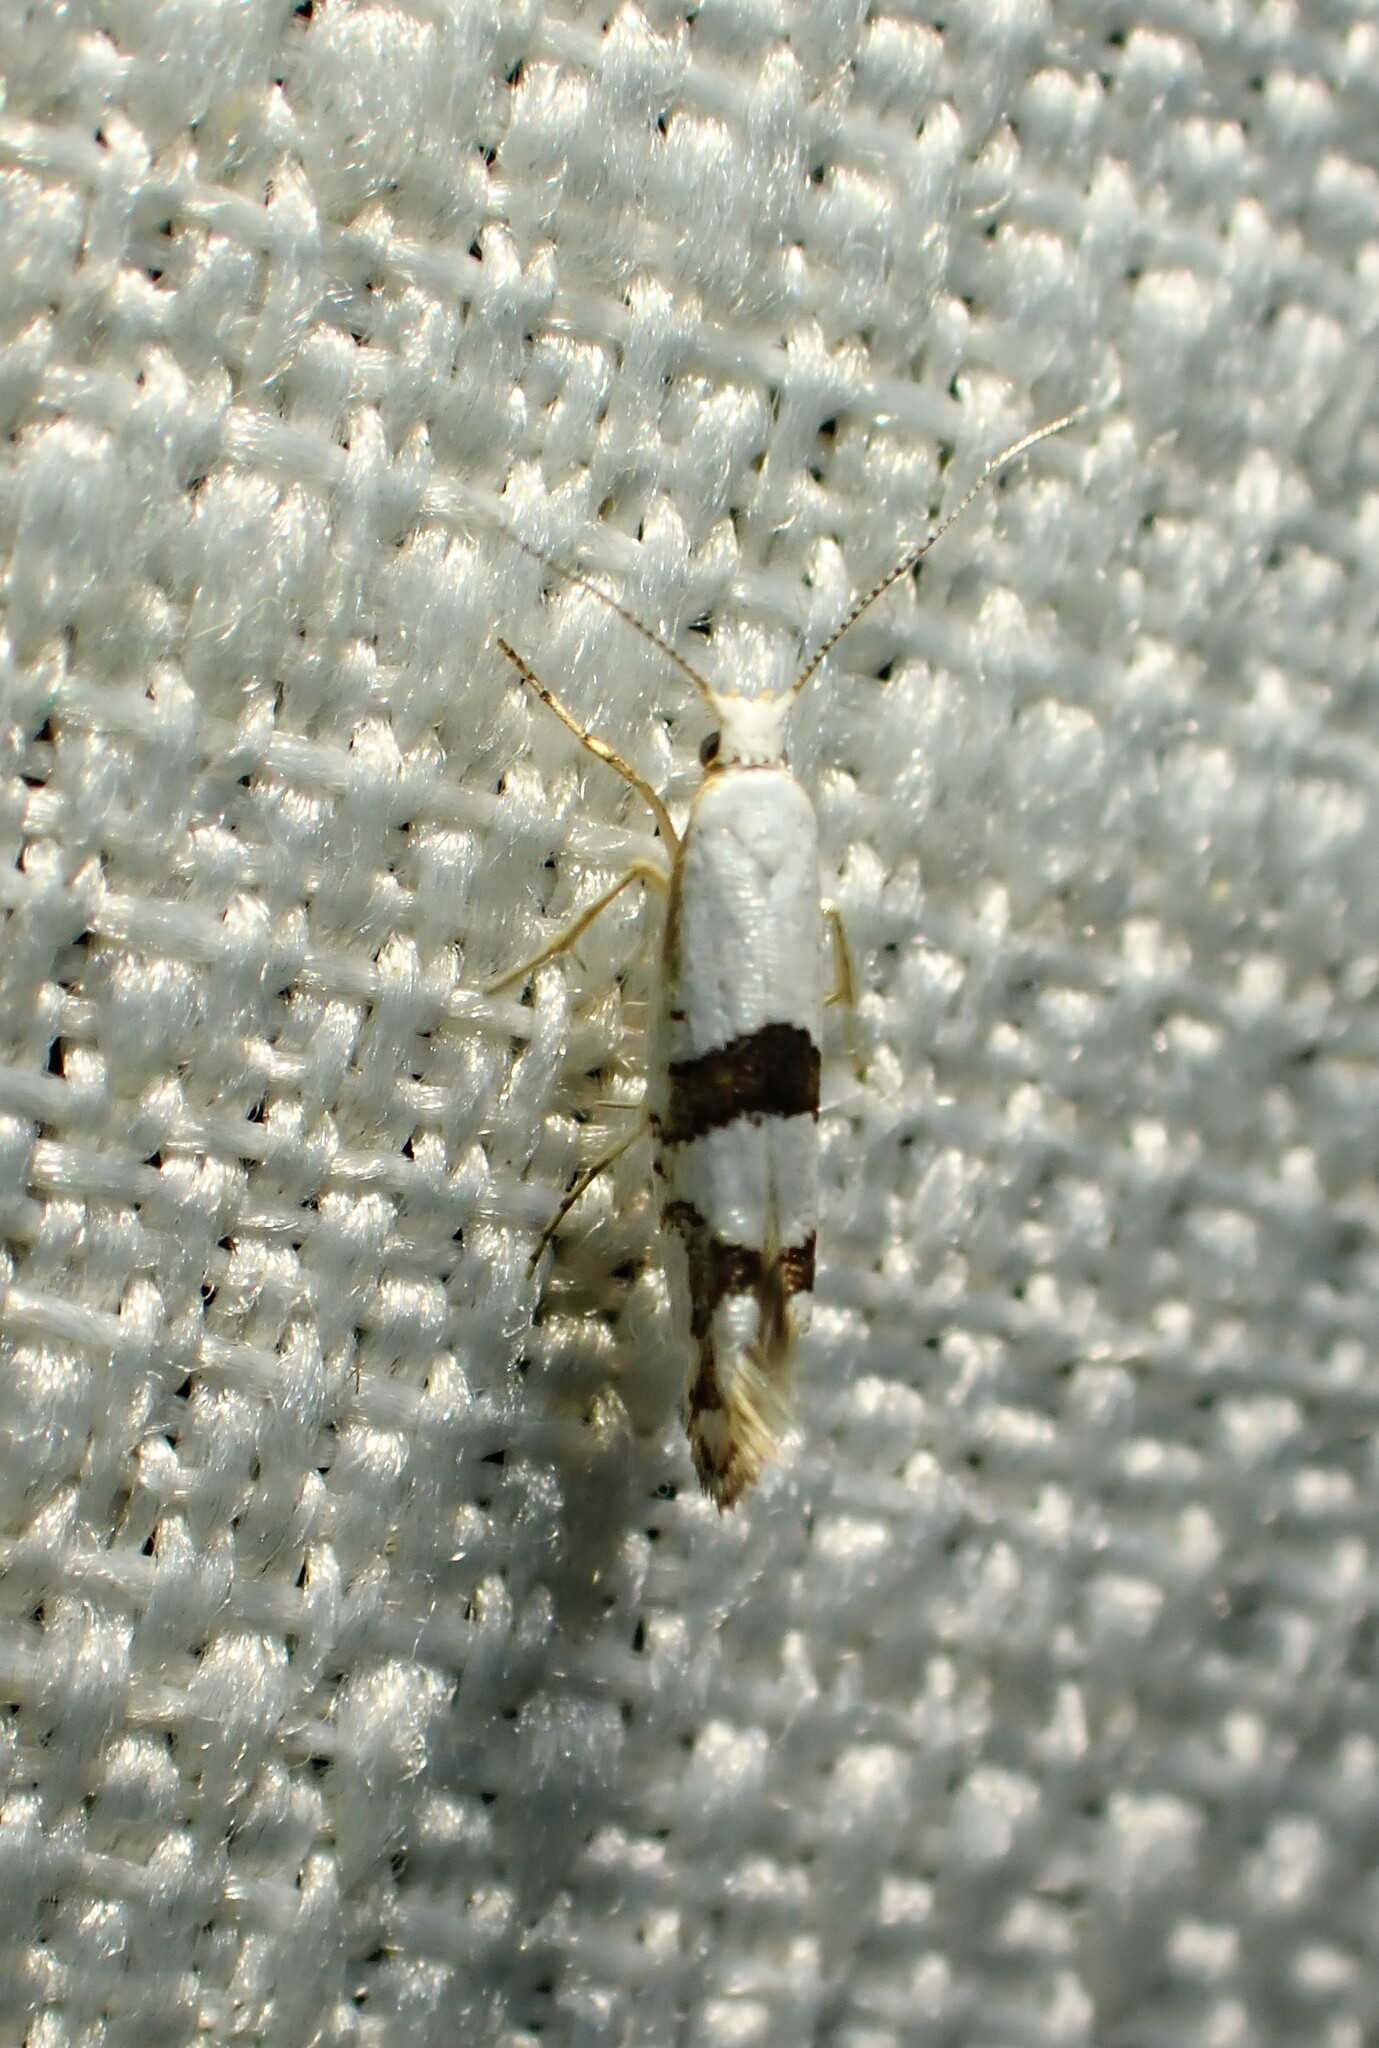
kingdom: Animalia
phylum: Arthropoda
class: Insecta
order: Lepidoptera
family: Argyresthiidae
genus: Argyresthia
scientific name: Argyresthia oreasella
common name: Cherry shoot borer moth
